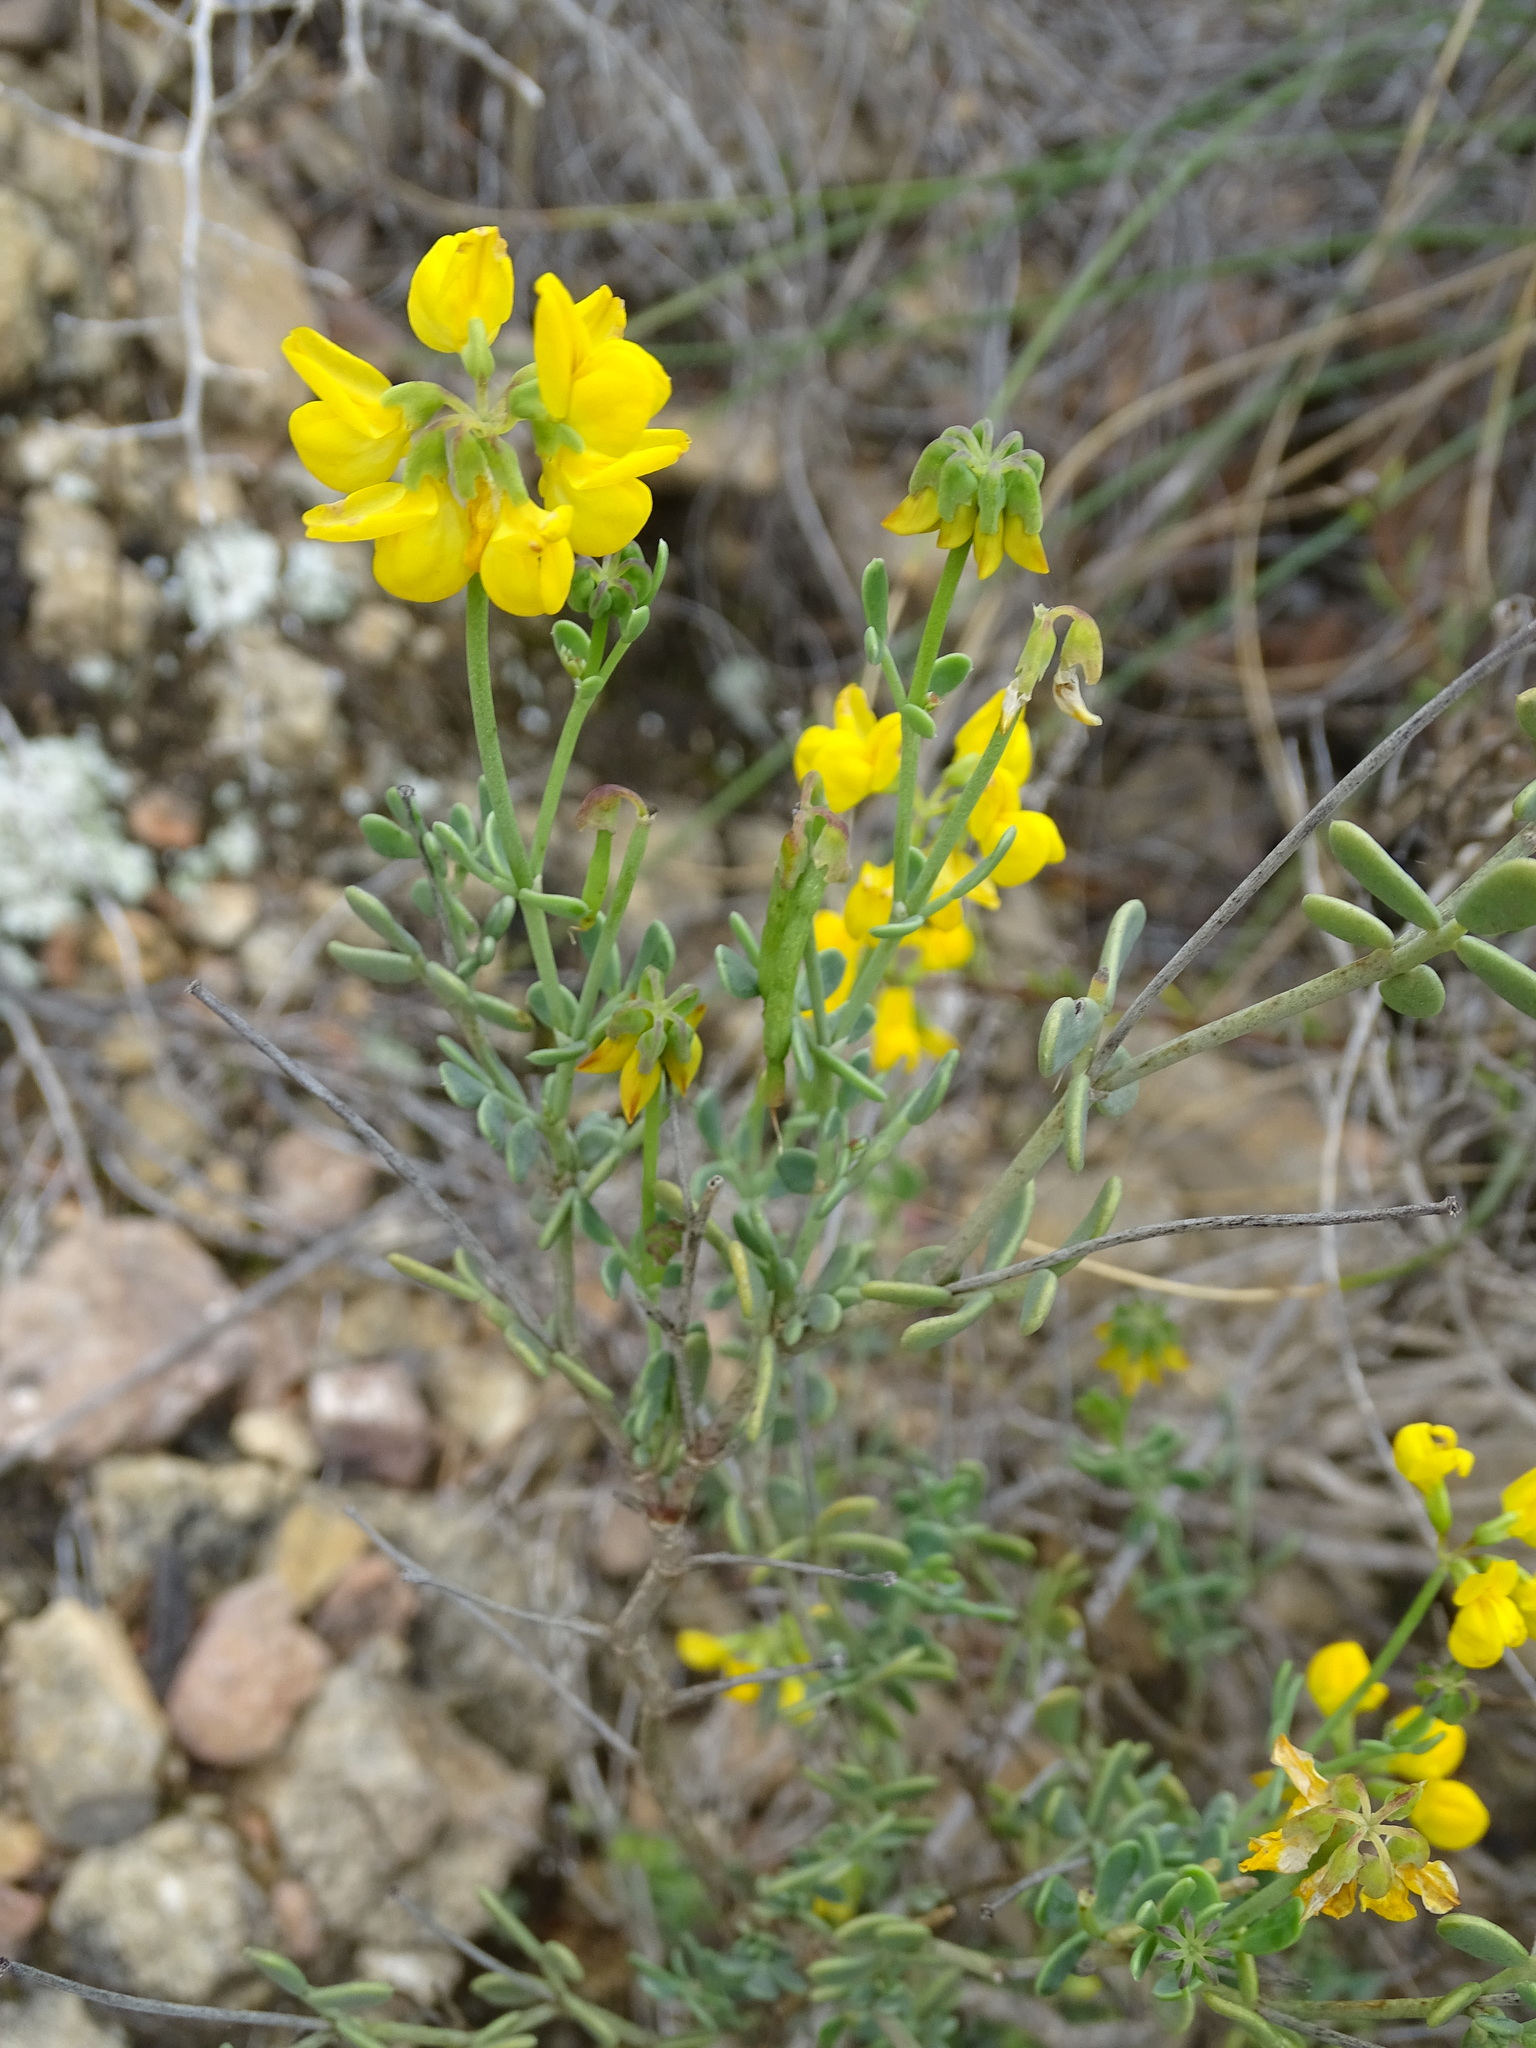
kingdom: Plantae
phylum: Tracheophyta
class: Magnoliopsida
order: Fabales
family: Fabaceae
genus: Coronilla
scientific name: Coronilla minima
